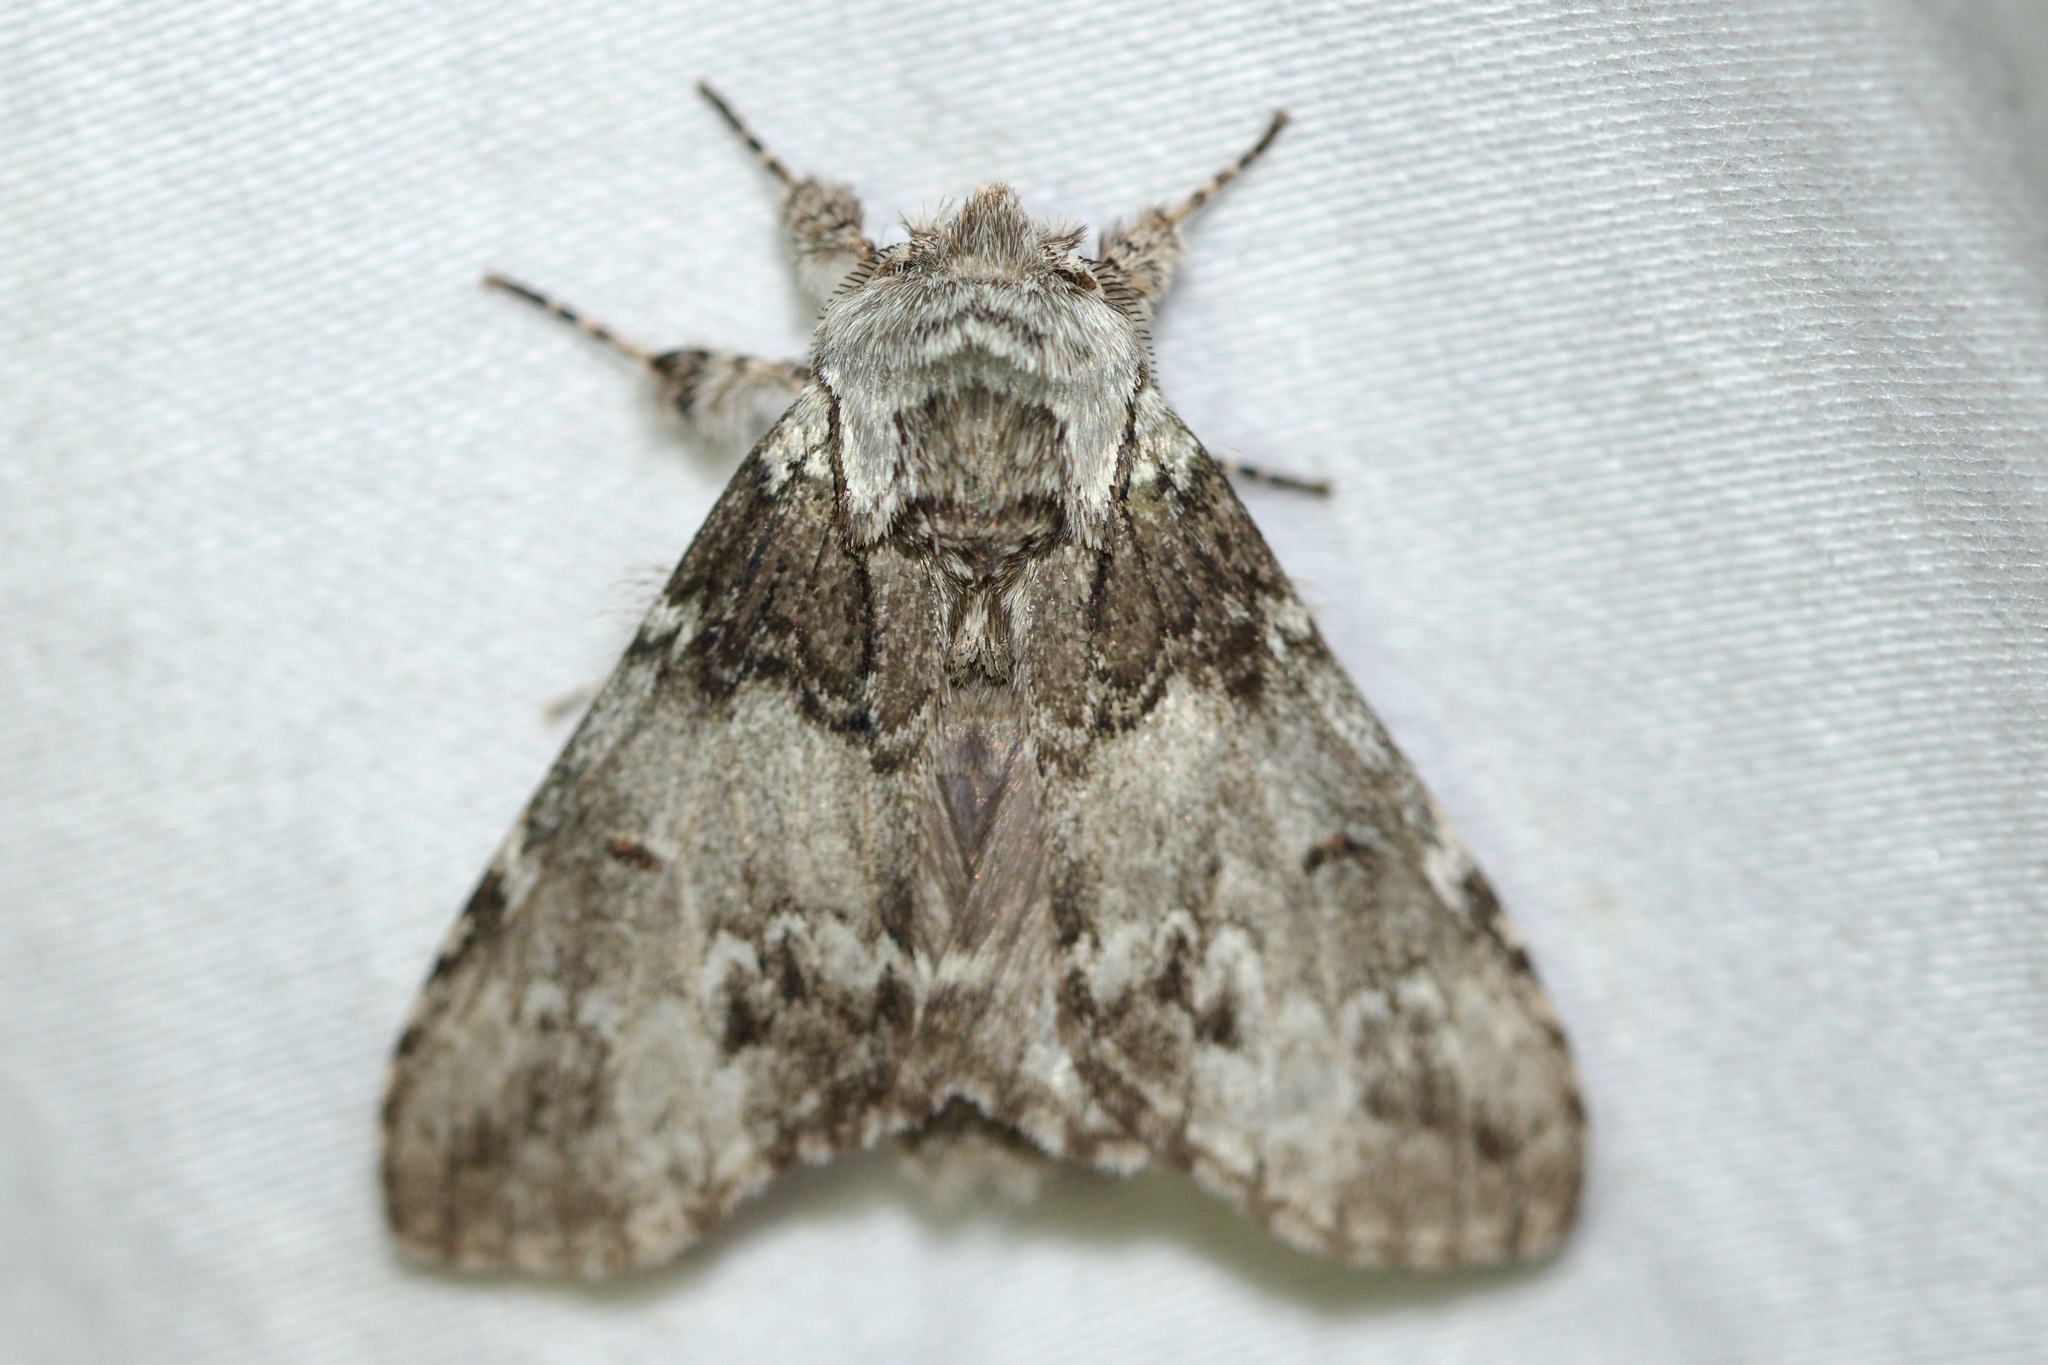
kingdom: Animalia
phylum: Arthropoda
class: Insecta
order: Lepidoptera
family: Notodontidae
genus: Macrurocampa
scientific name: Macrurocampa marthesia
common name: Mottled prominent
